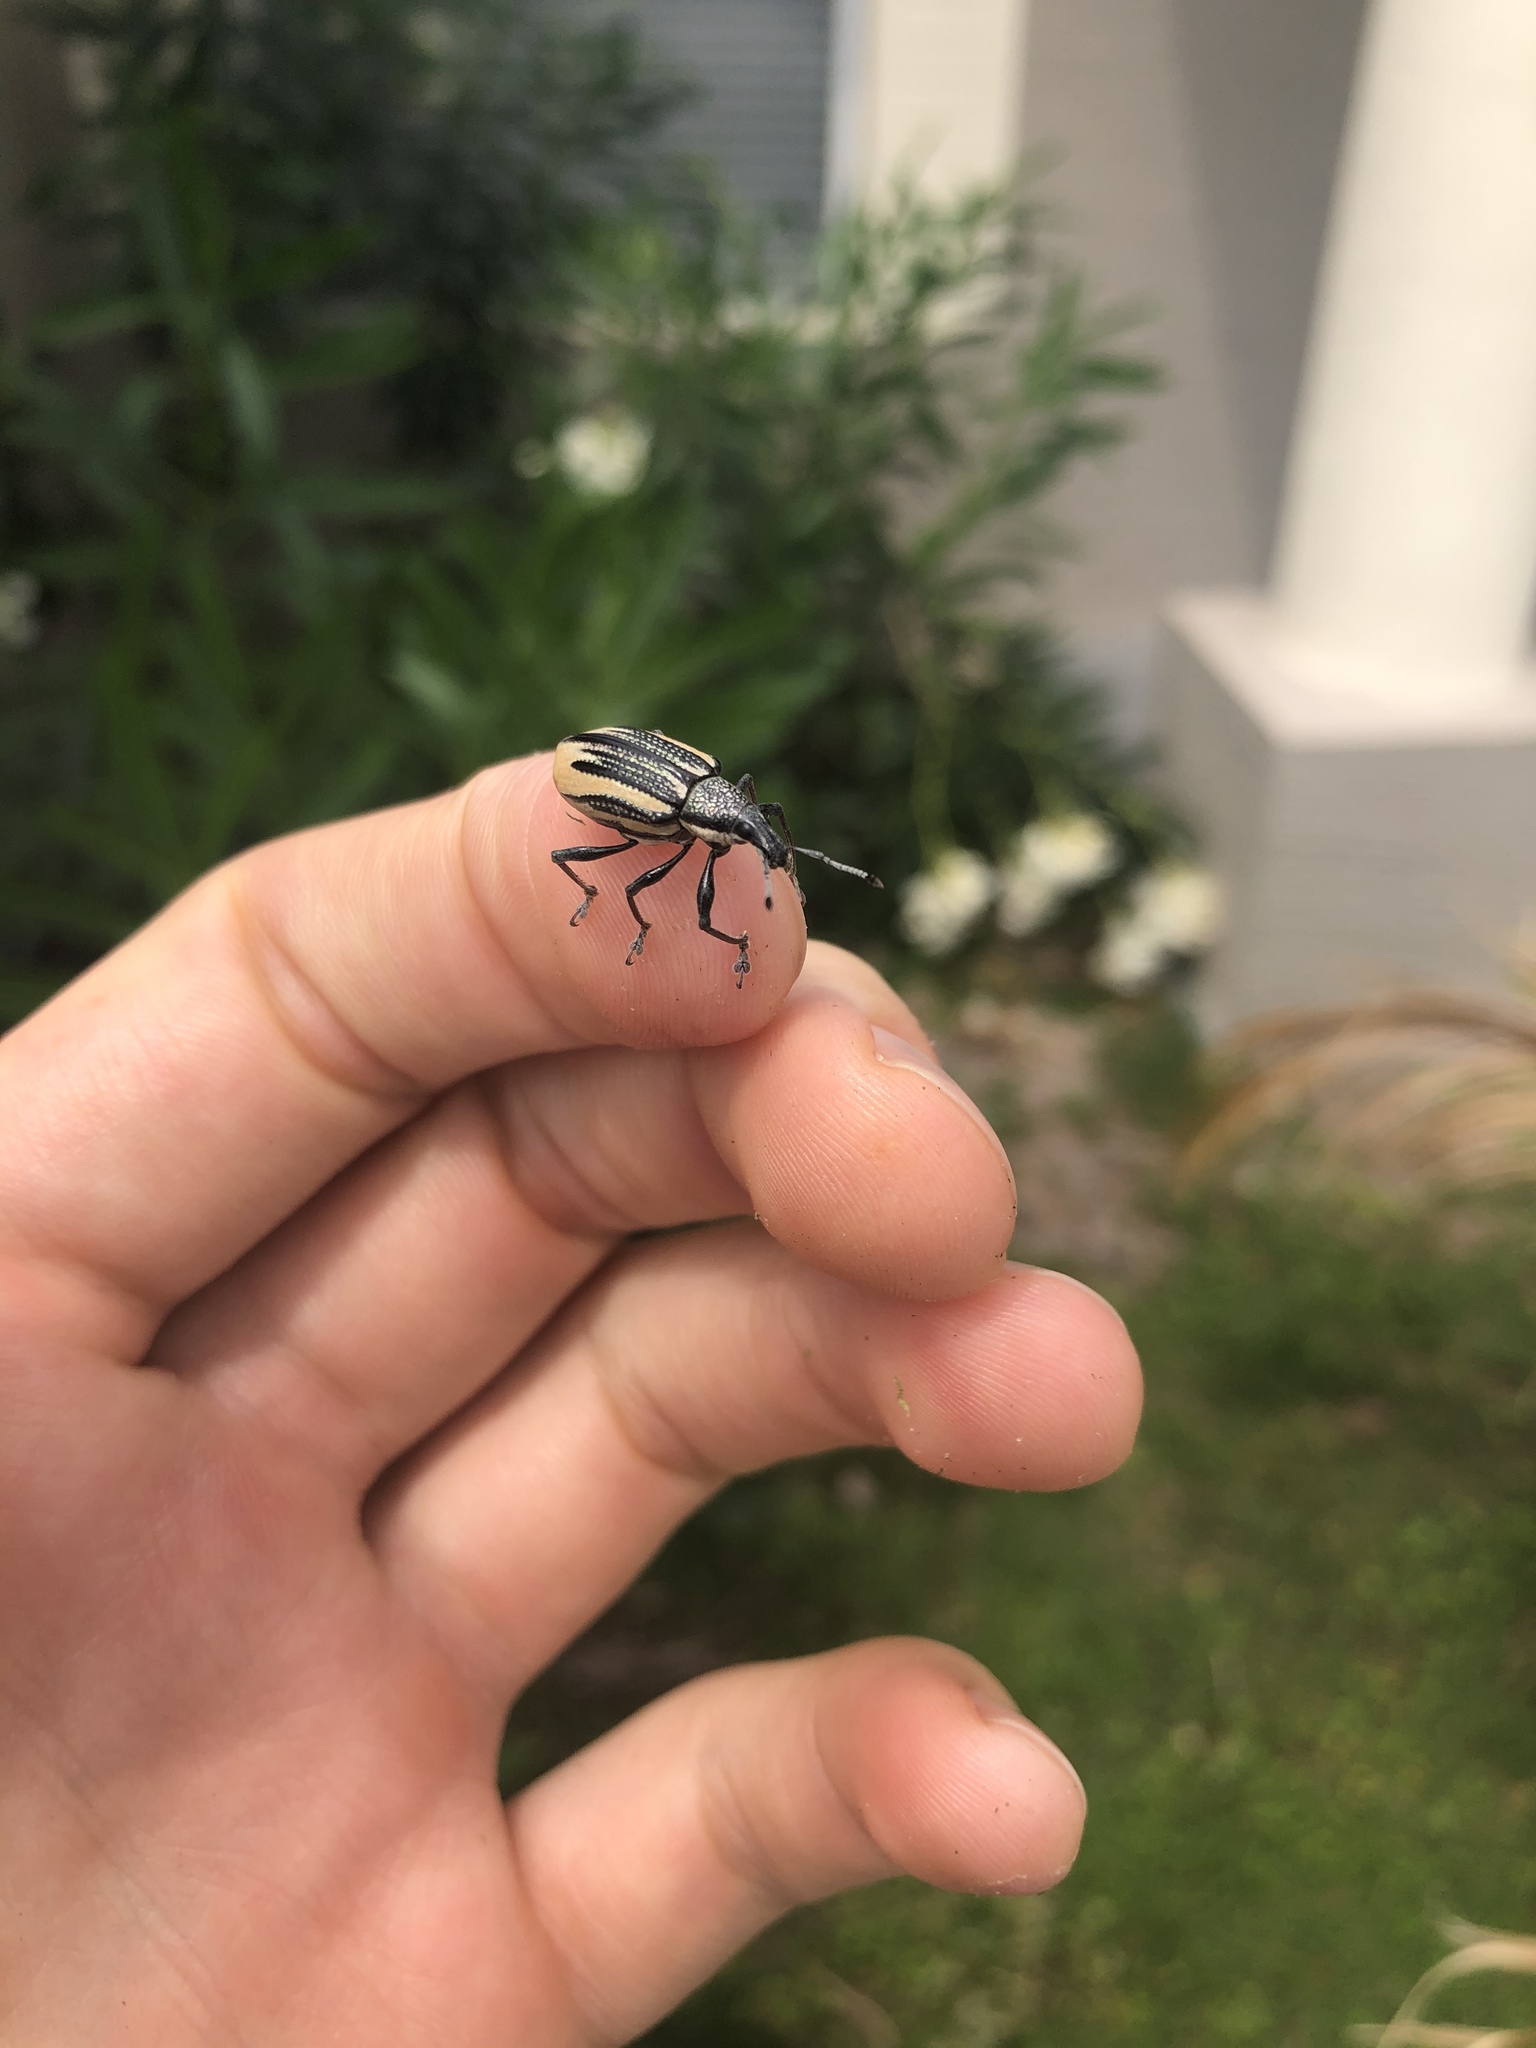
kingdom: Animalia
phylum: Arthropoda
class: Insecta
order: Coleoptera
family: Curculionidae
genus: Diaprepes
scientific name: Diaprepes abbreviatus
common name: Root weevil
